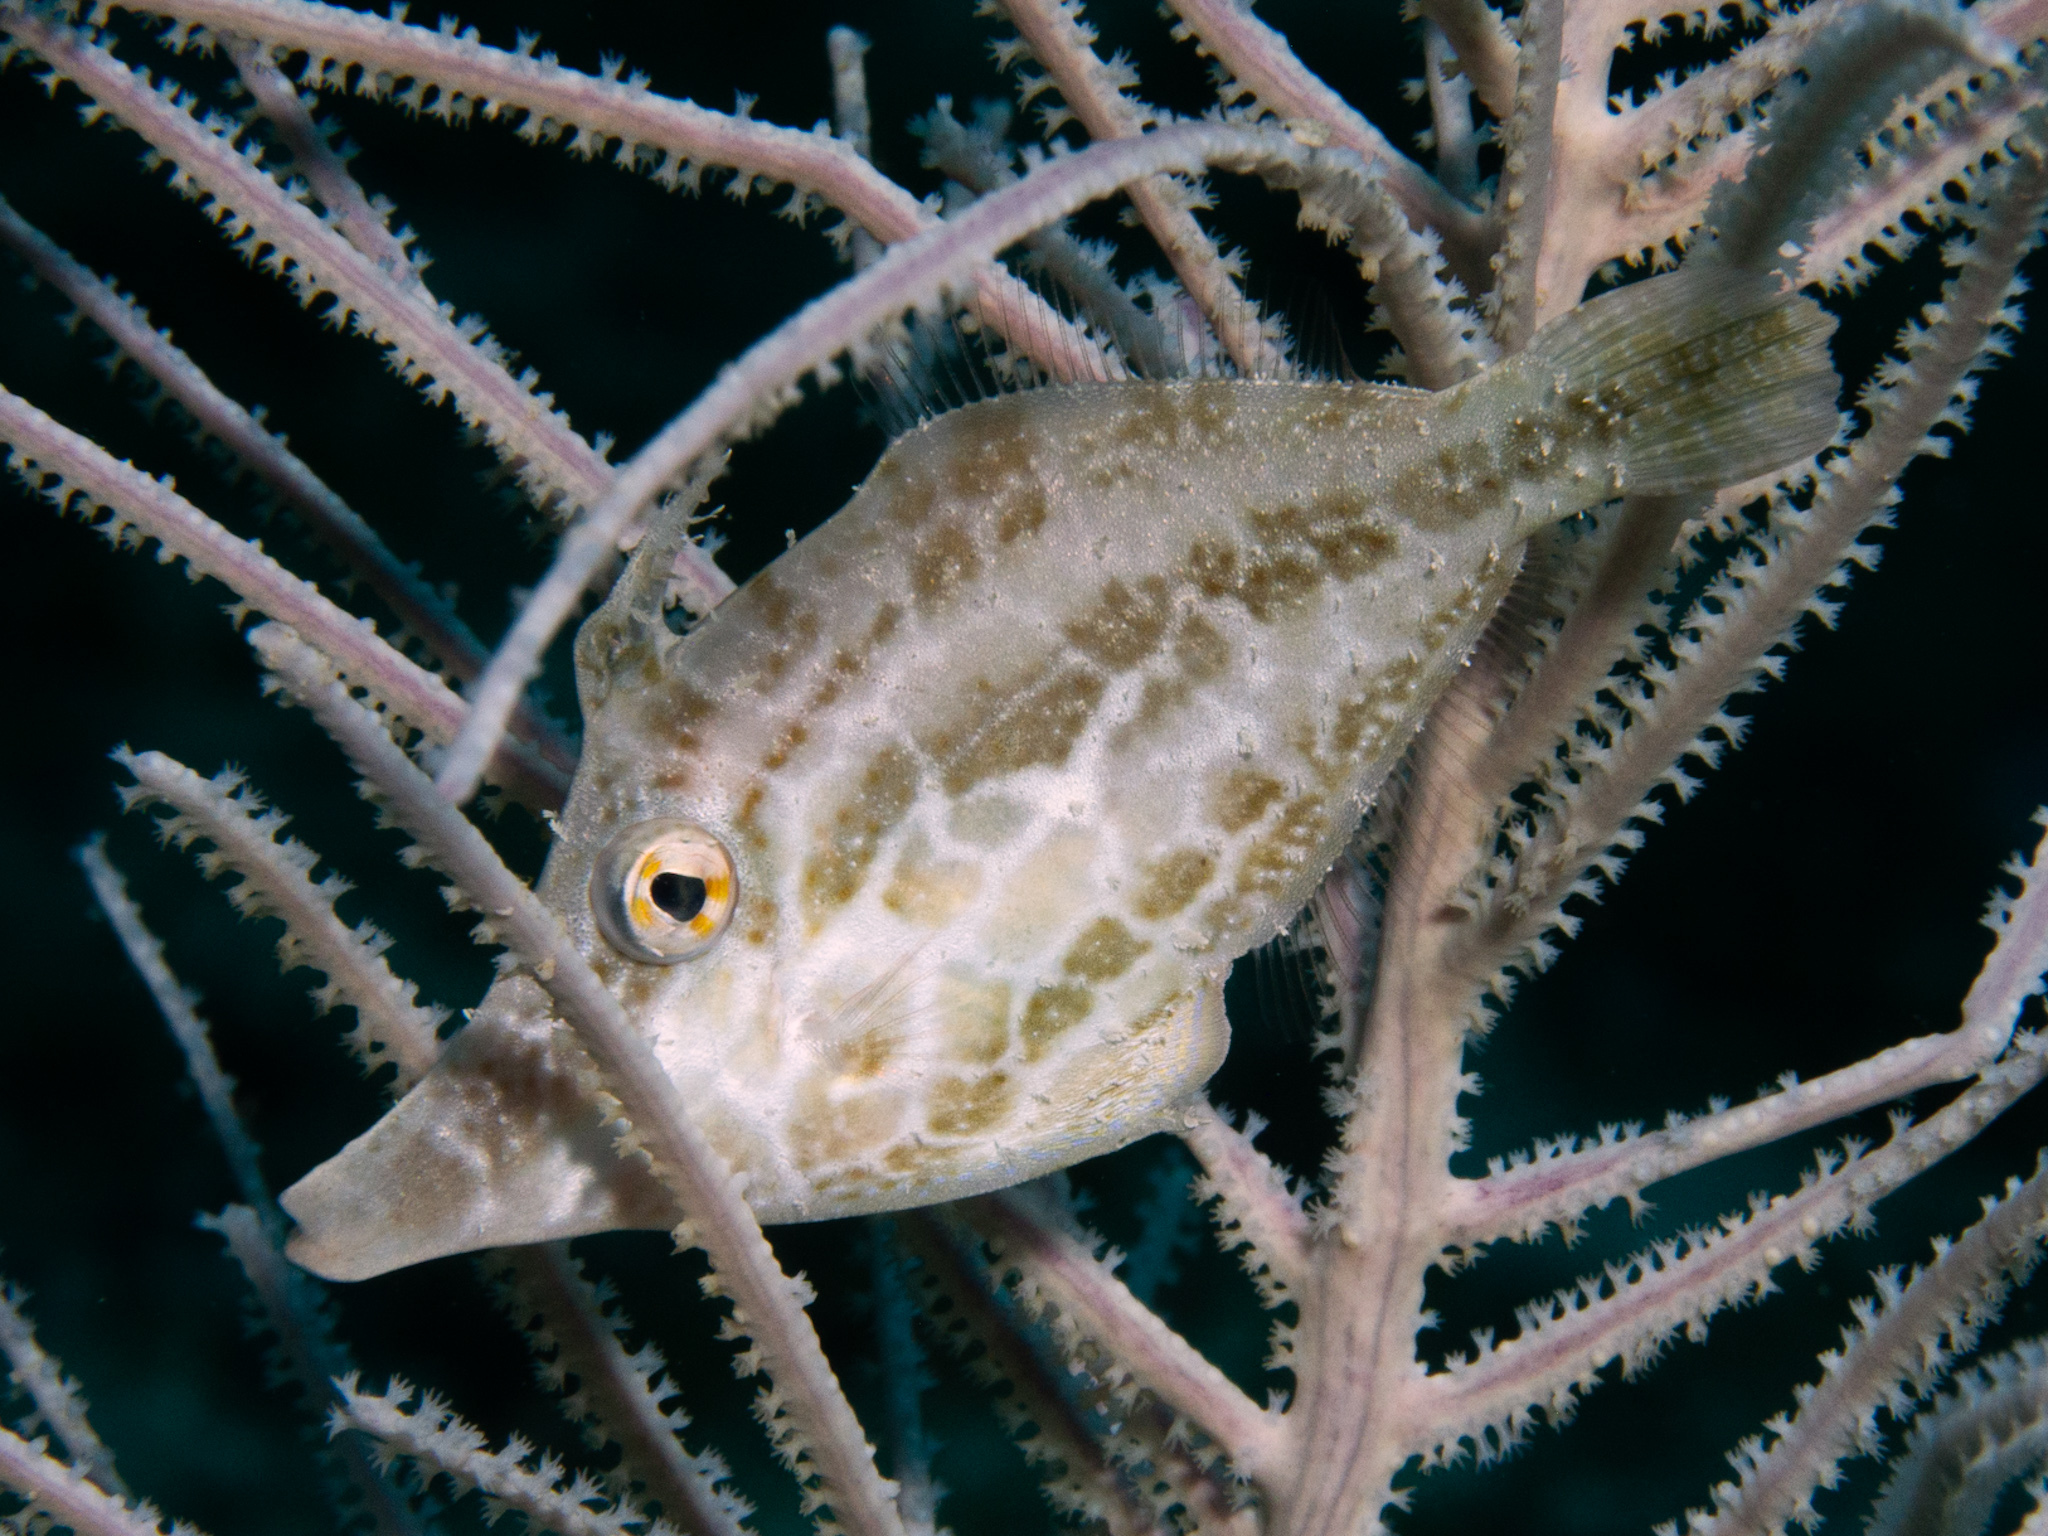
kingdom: Animalia
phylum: Chordata
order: Tetraodontiformes
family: Monacanthidae
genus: Monacanthus
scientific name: Monacanthus tuckeri
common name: Slender filefish
